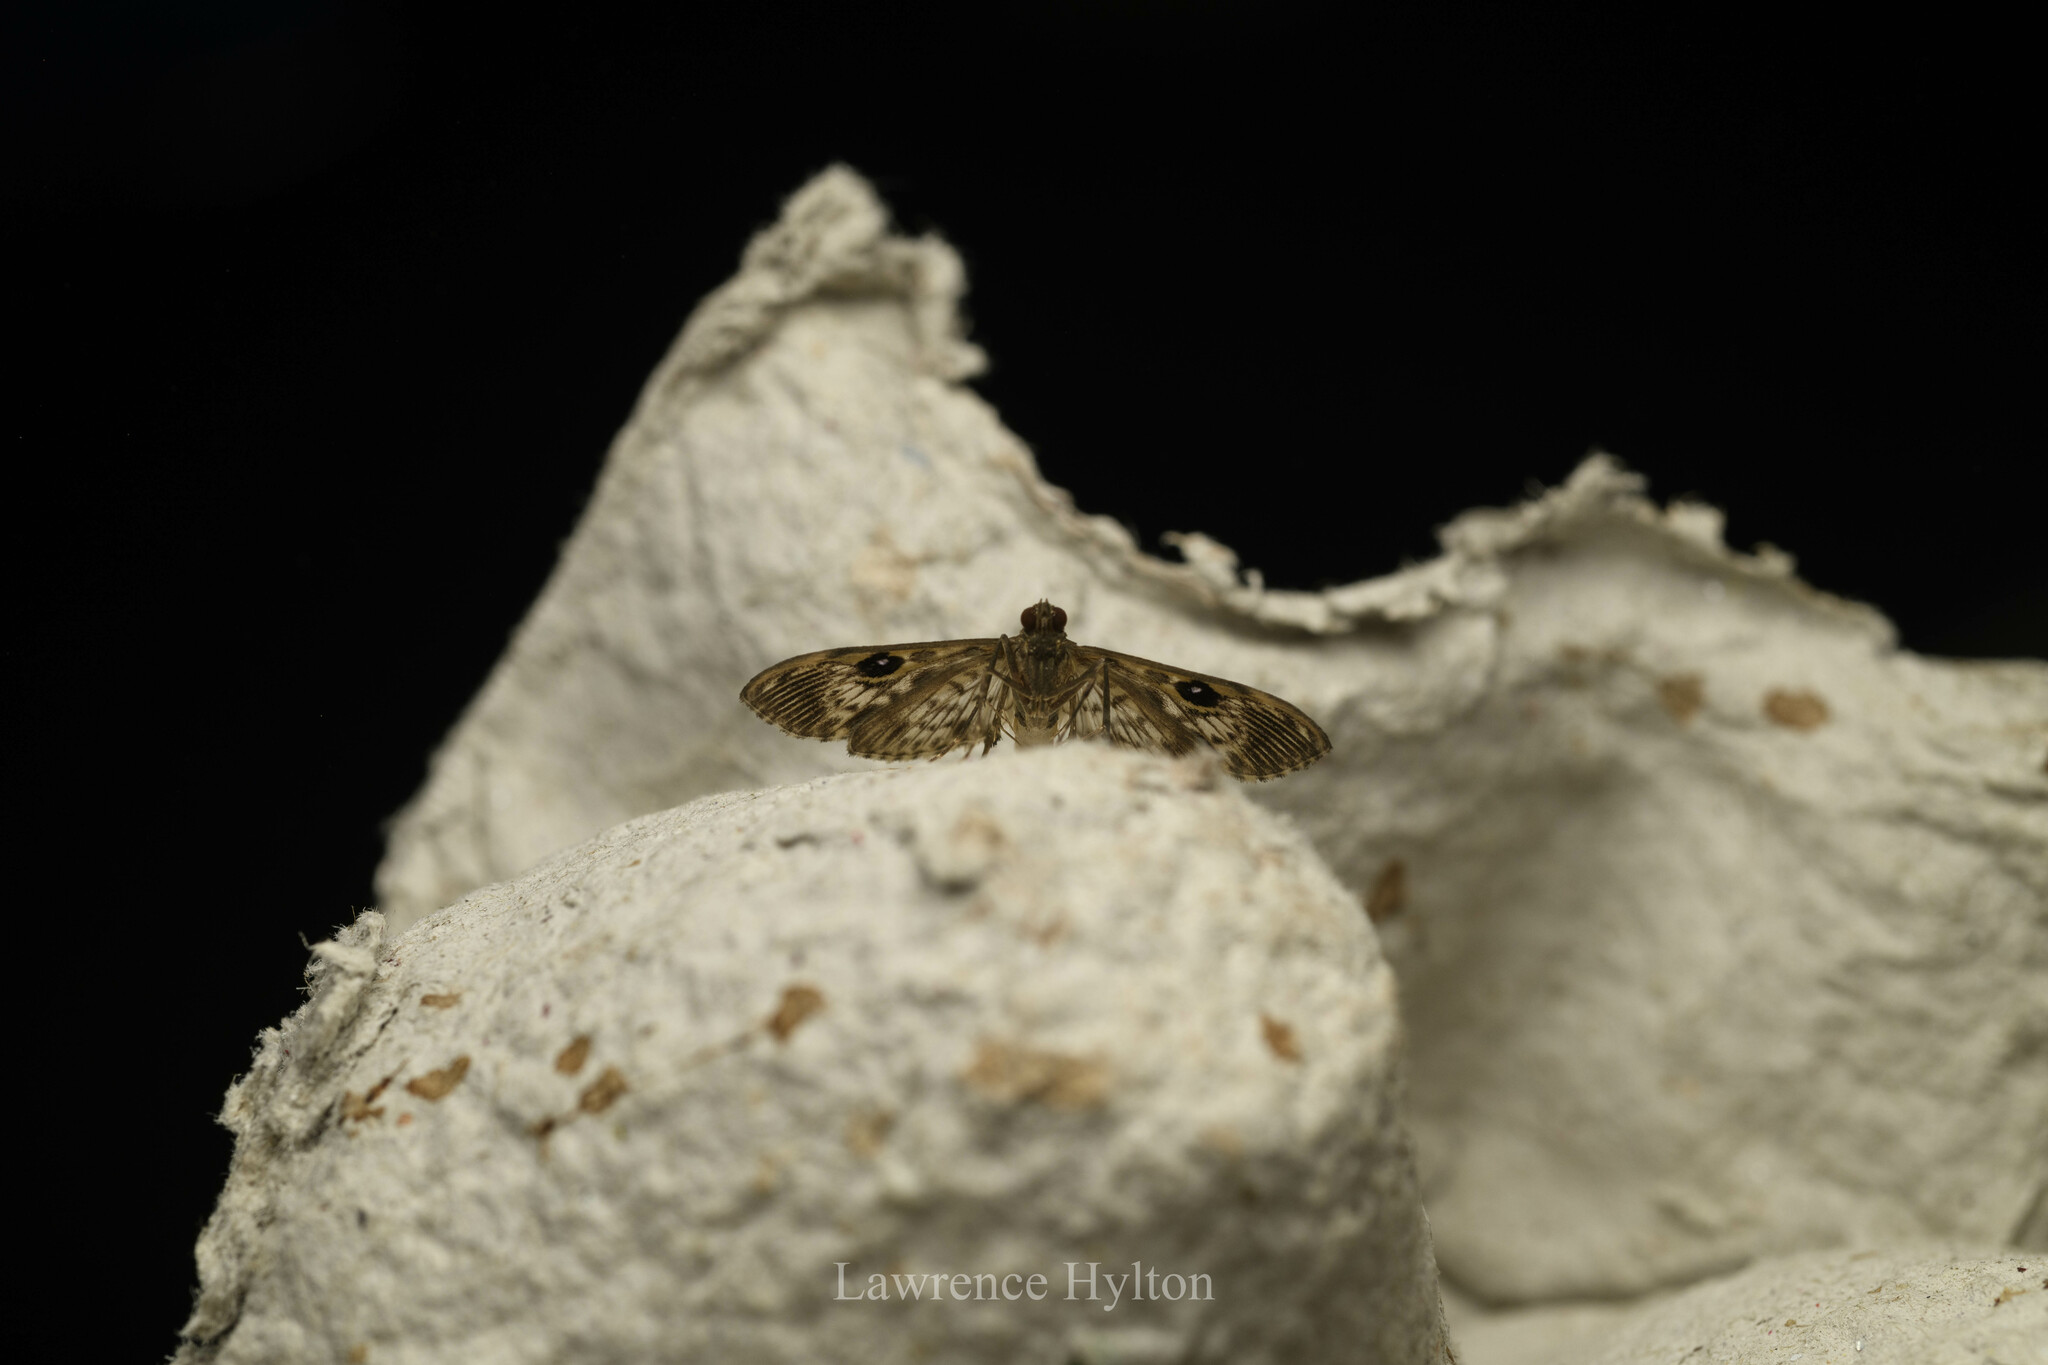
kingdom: Animalia
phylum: Arthropoda
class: Insecta
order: Lepidoptera
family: Crambidae
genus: Rhimphaliodes
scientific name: Rhimphaliodes macrostigma
